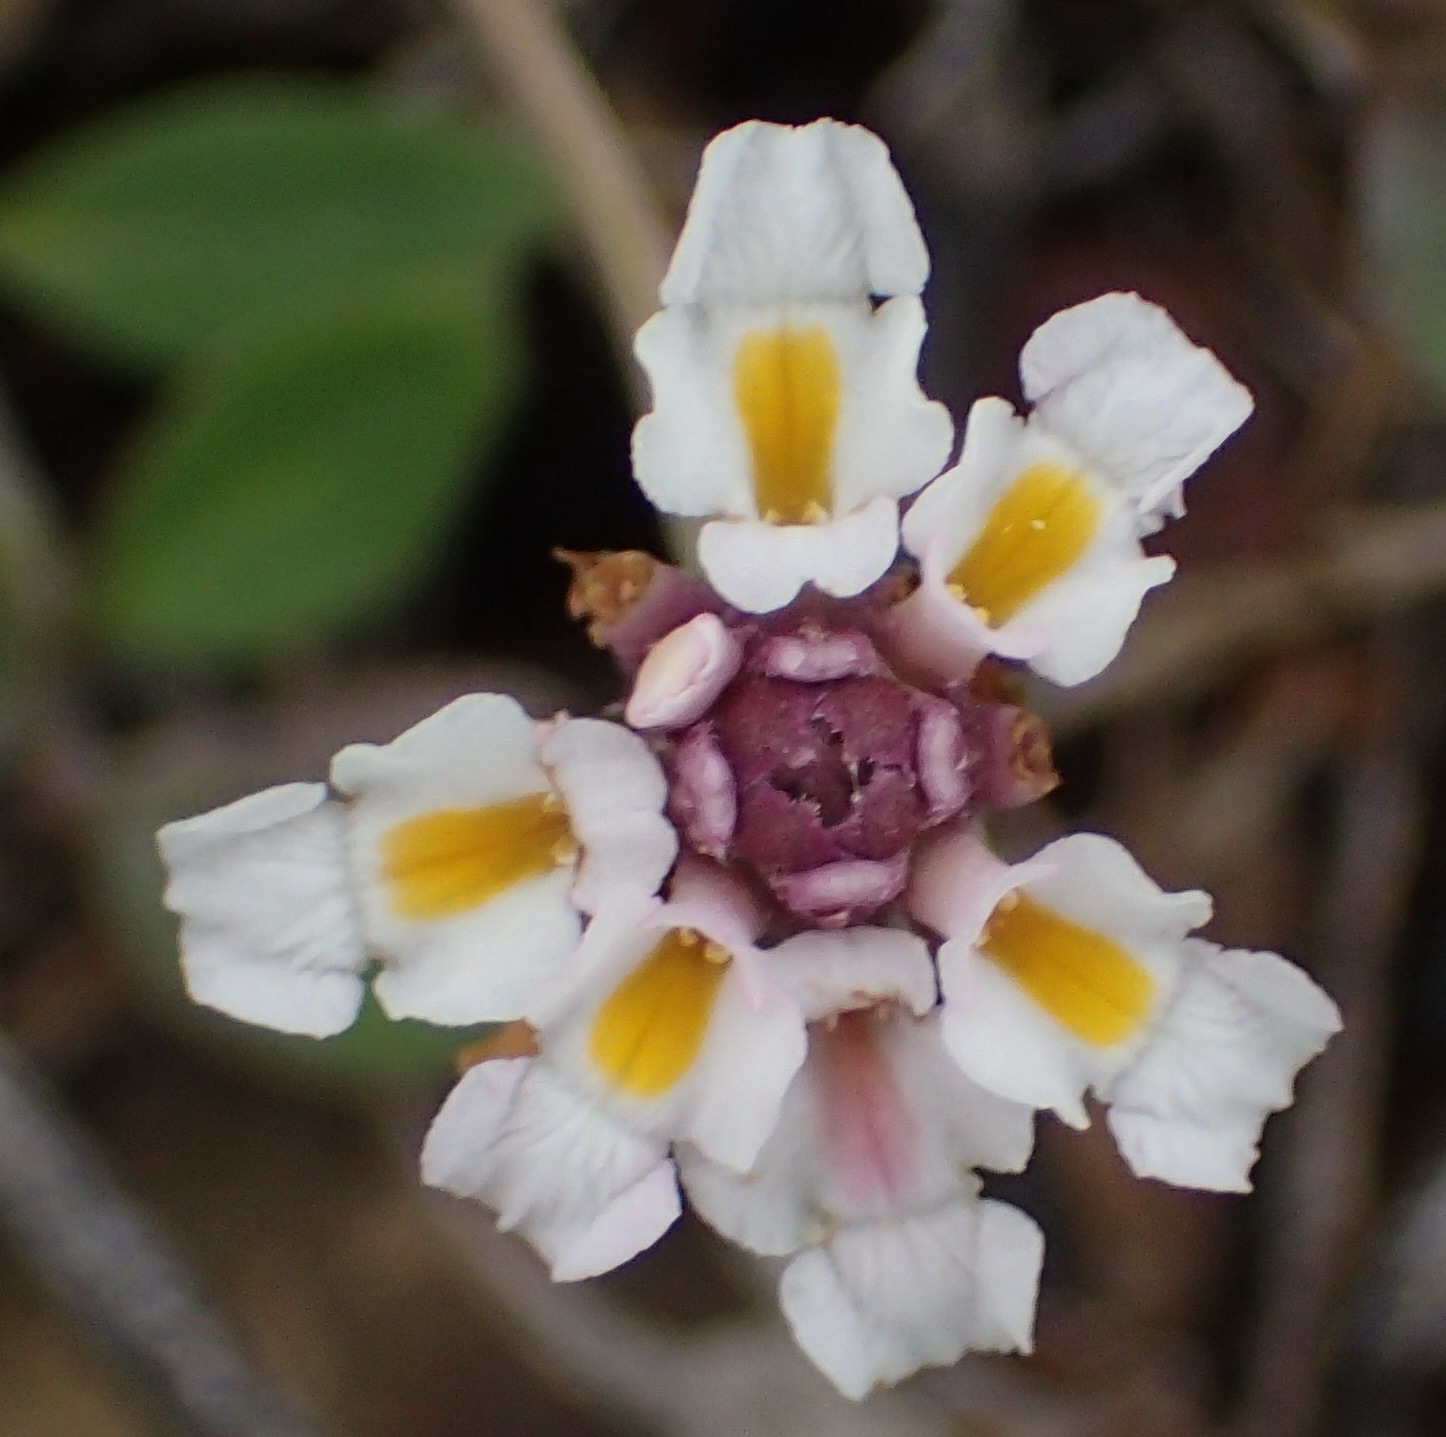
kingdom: Plantae
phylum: Tracheophyta
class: Magnoliopsida
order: Lamiales
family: Verbenaceae
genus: Phyla
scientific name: Phyla nodiflora
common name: Frogfruit
